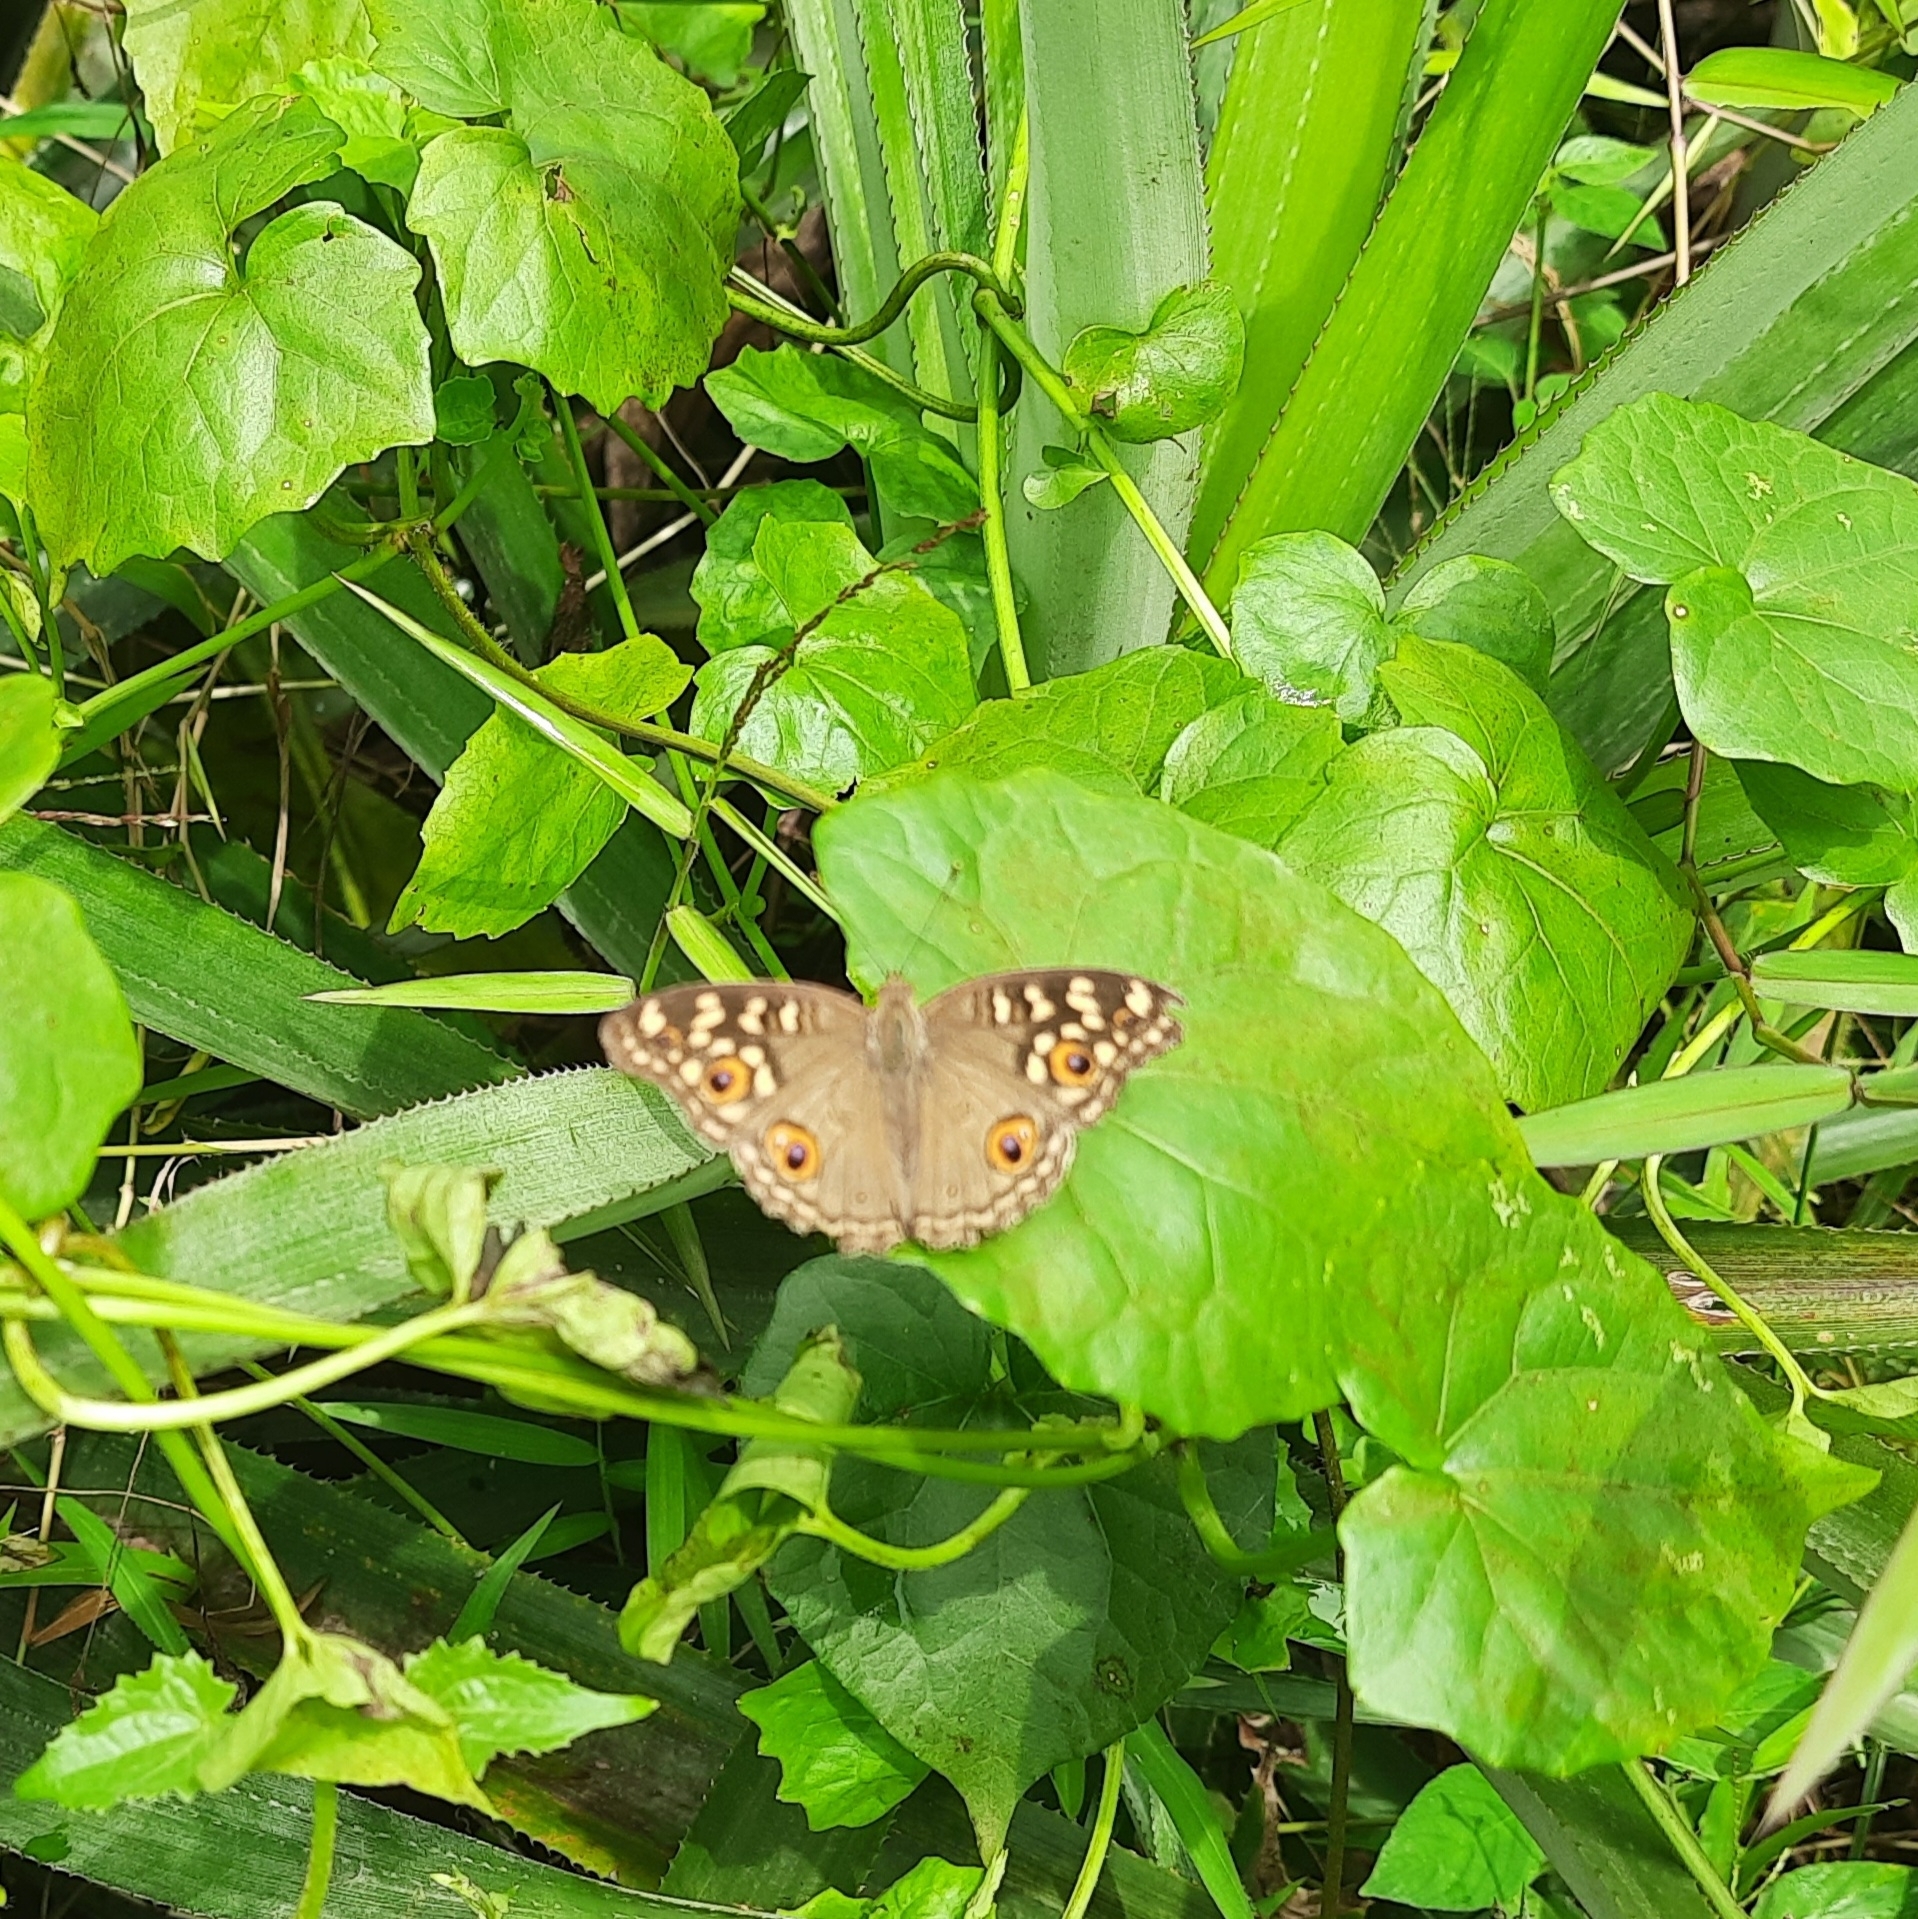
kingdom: Animalia
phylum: Arthropoda
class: Insecta
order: Lepidoptera
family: Nymphalidae
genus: Junonia
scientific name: Junonia lemonias
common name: Lemon pansy
